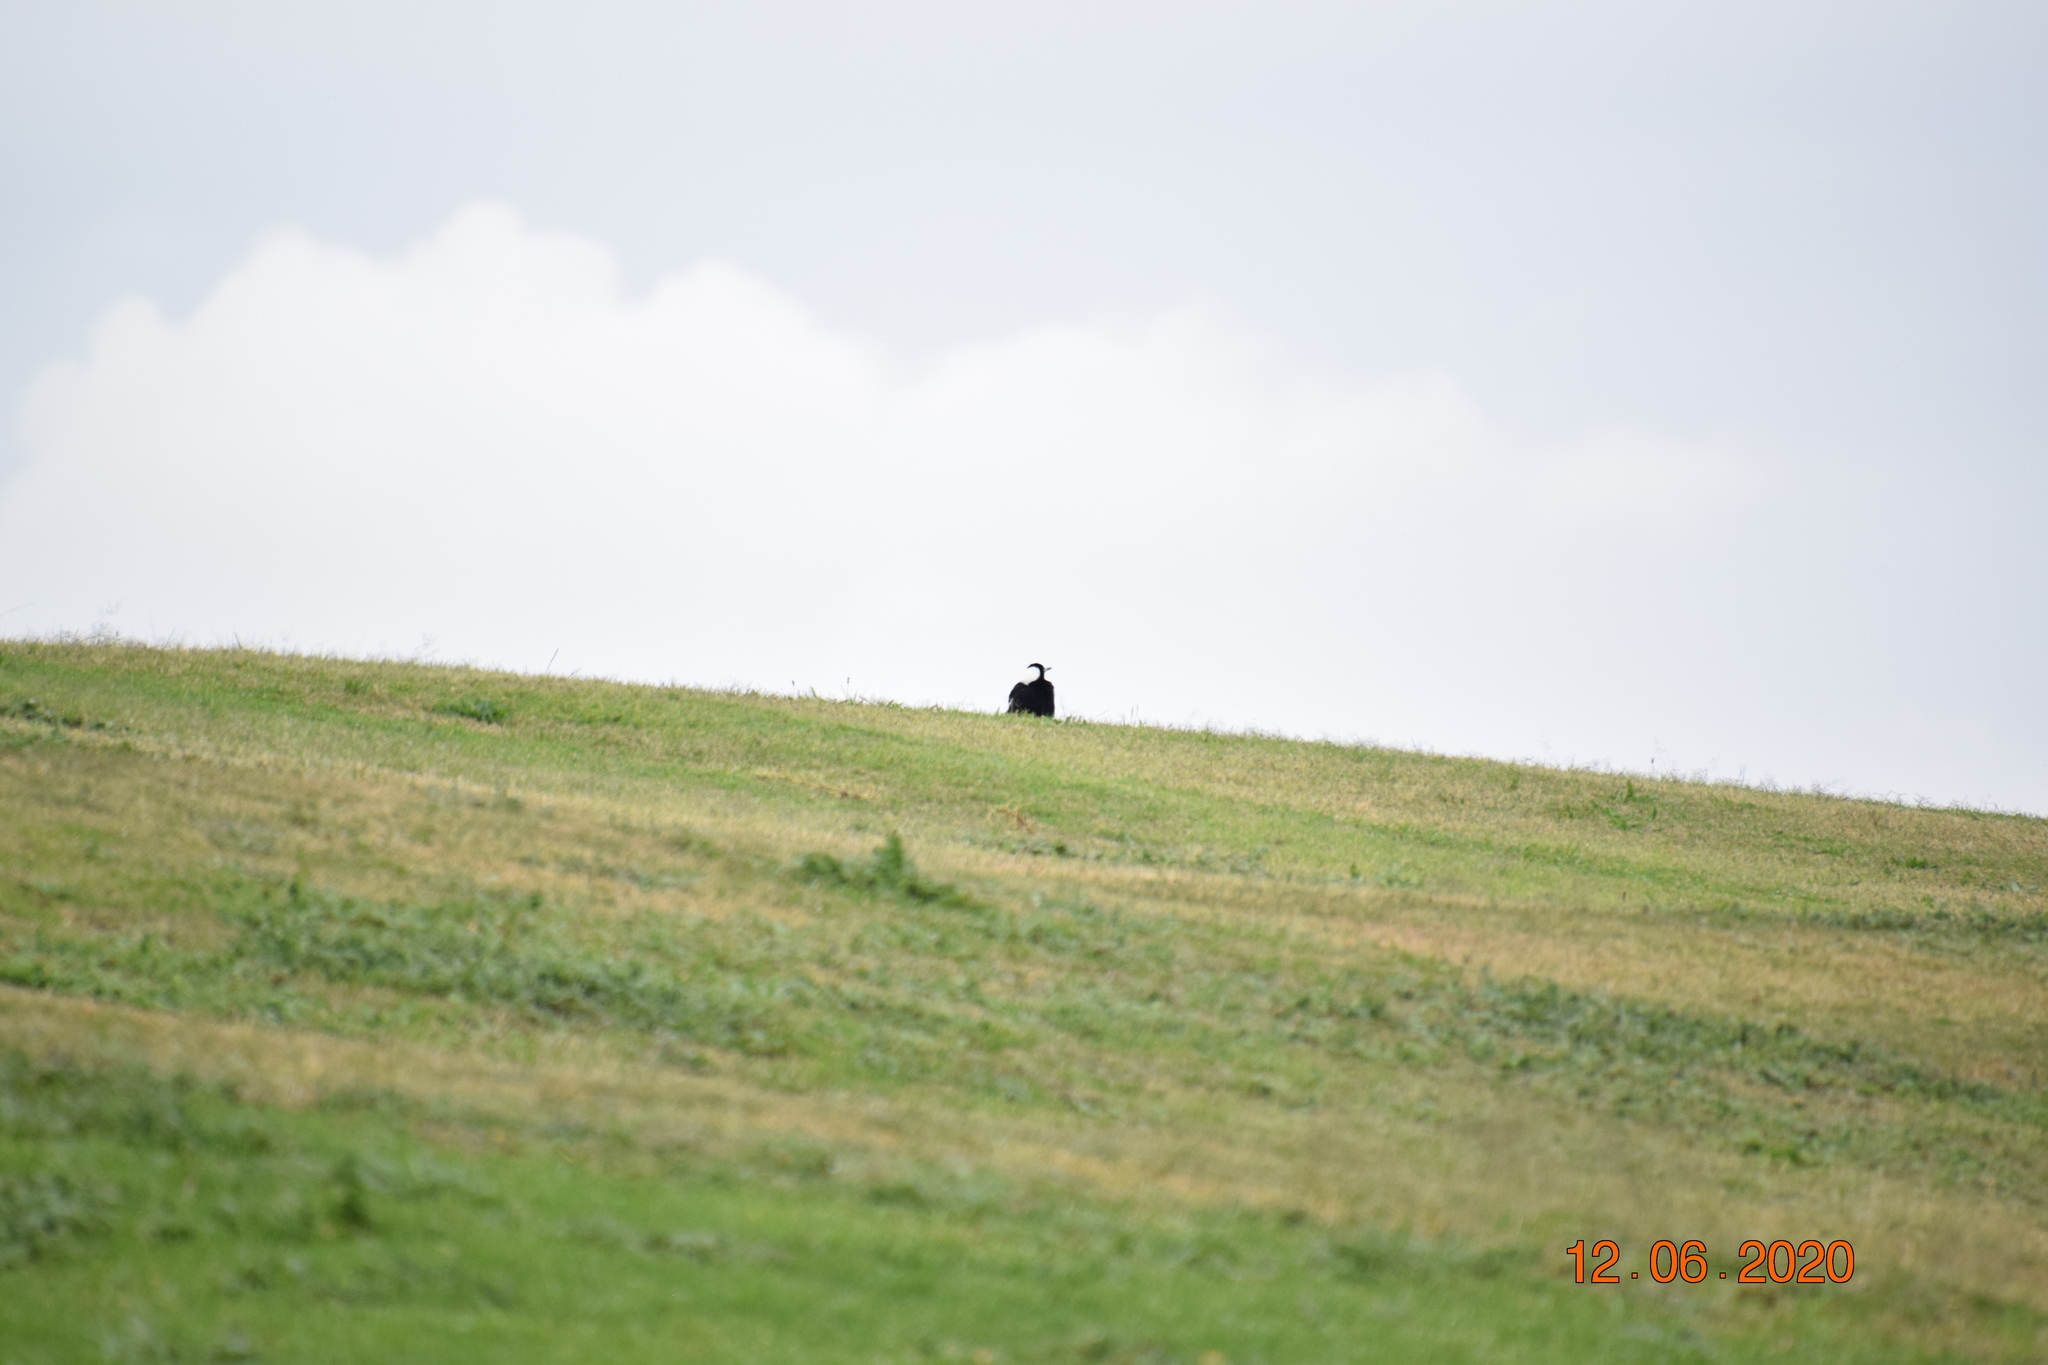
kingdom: Animalia
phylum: Chordata
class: Aves
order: Passeriformes
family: Cracticidae
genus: Gymnorhina
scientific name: Gymnorhina tibicen
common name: Australian magpie
